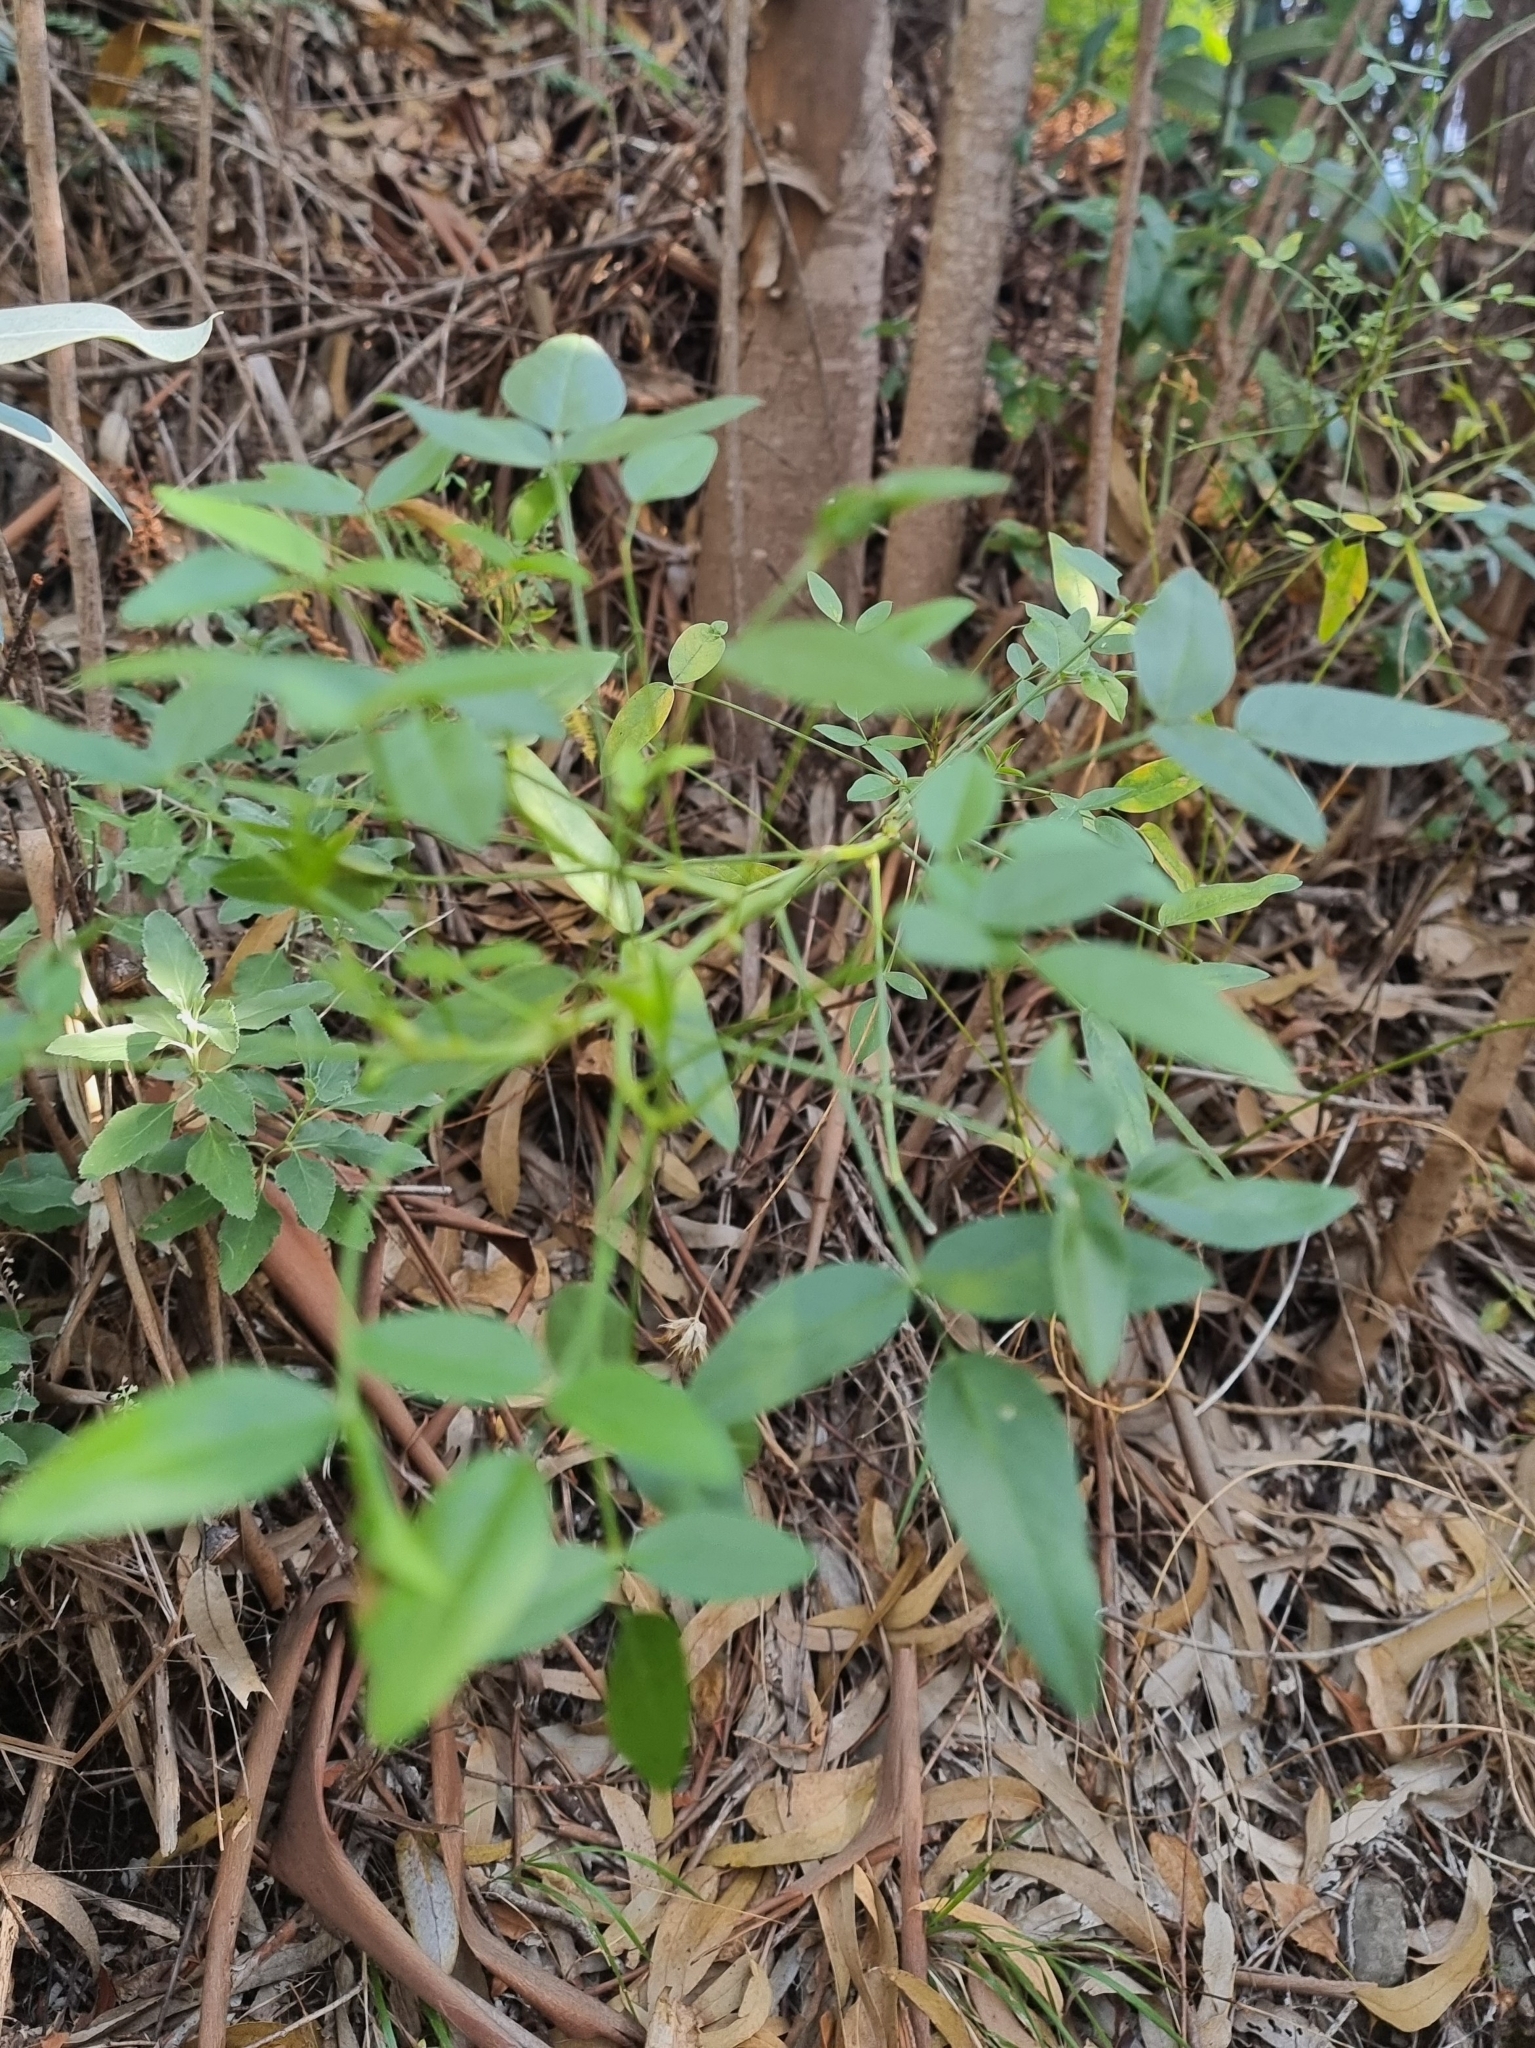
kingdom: Plantae
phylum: Tracheophyta
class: Magnoliopsida
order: Fabales
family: Fabaceae
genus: Bituminaria
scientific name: Bituminaria bituminosa
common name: Arabian pea
